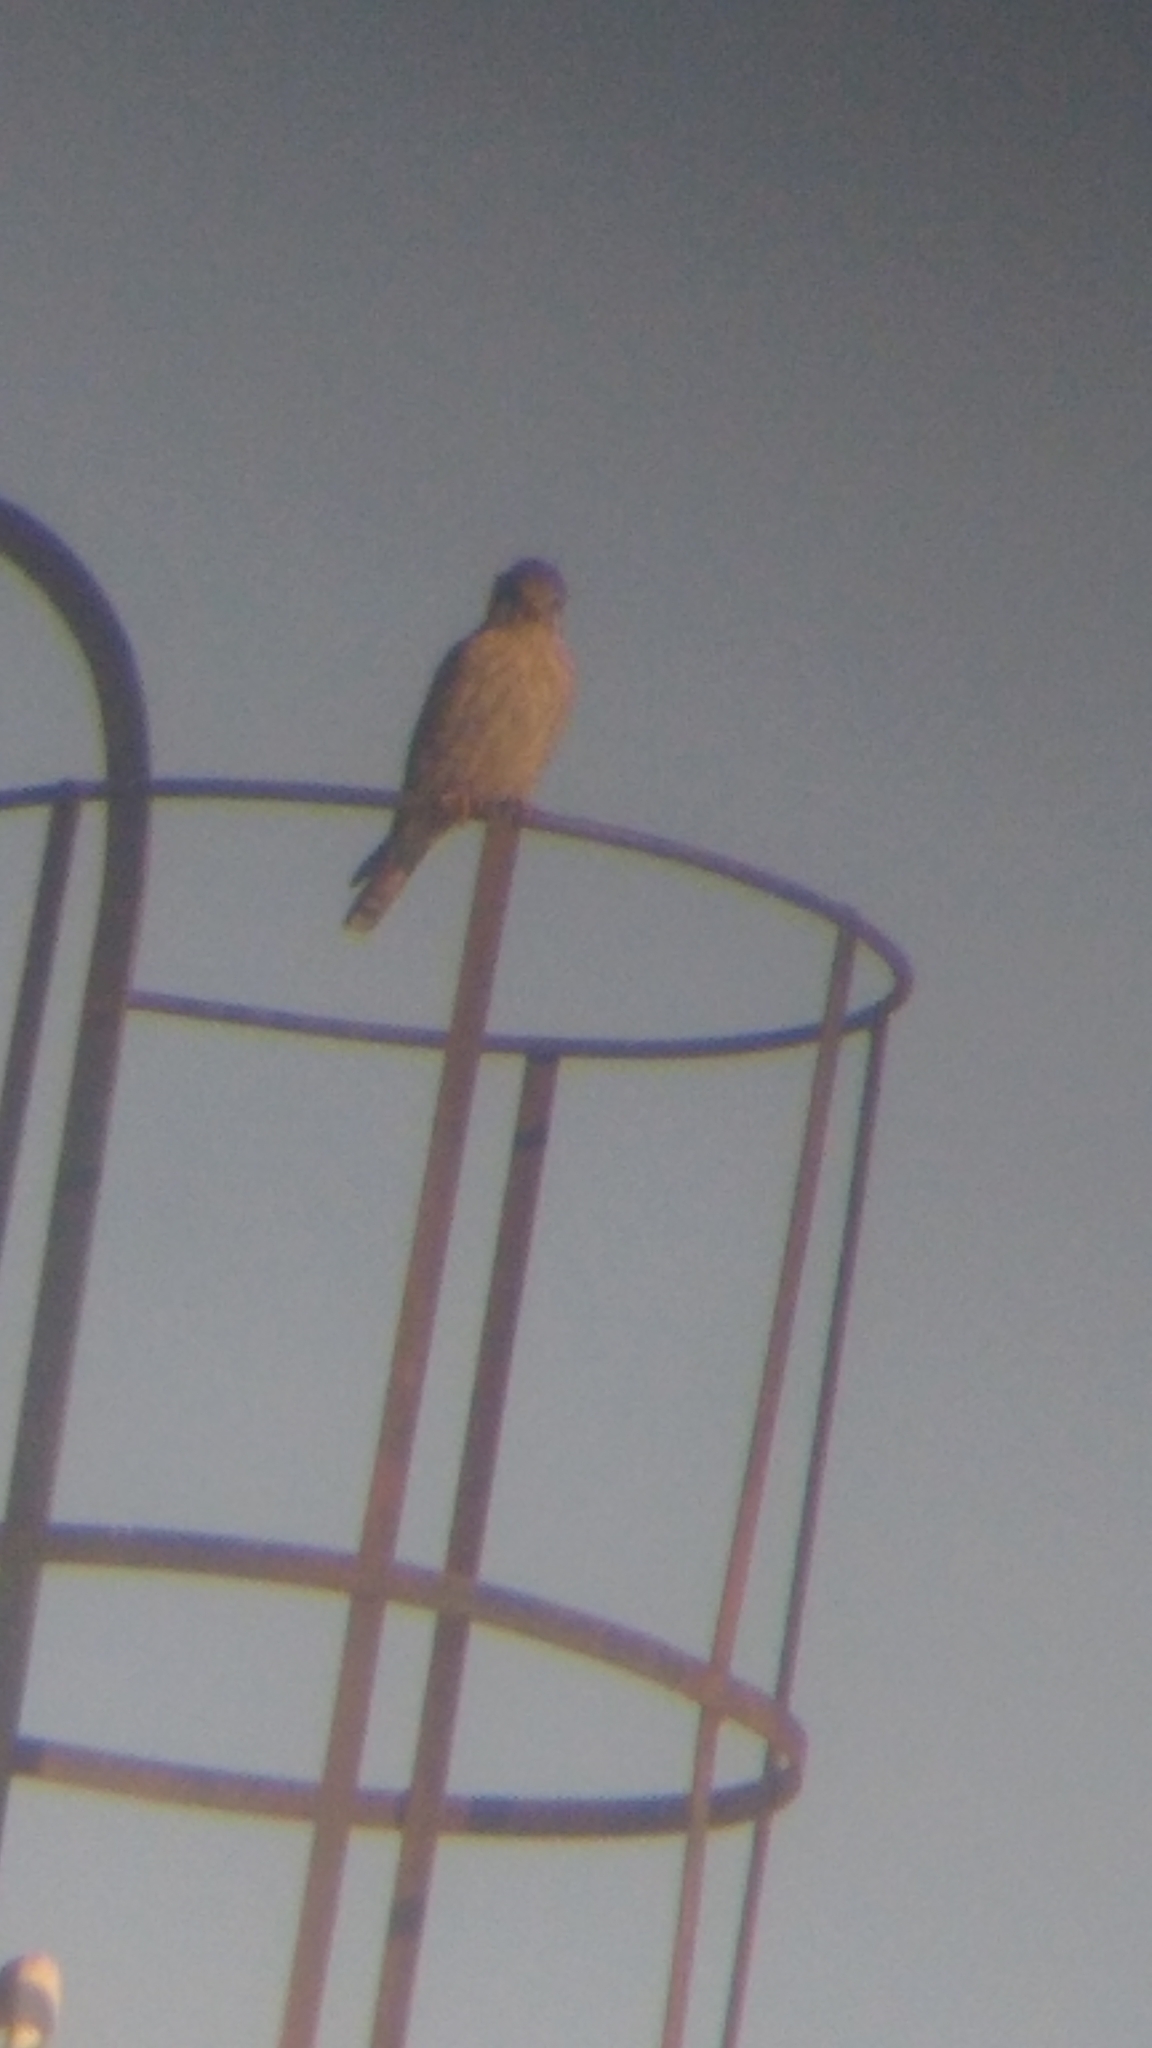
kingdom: Animalia
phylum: Chordata
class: Aves
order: Falconiformes
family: Falconidae
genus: Falco
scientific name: Falco sparverius
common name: American kestrel
